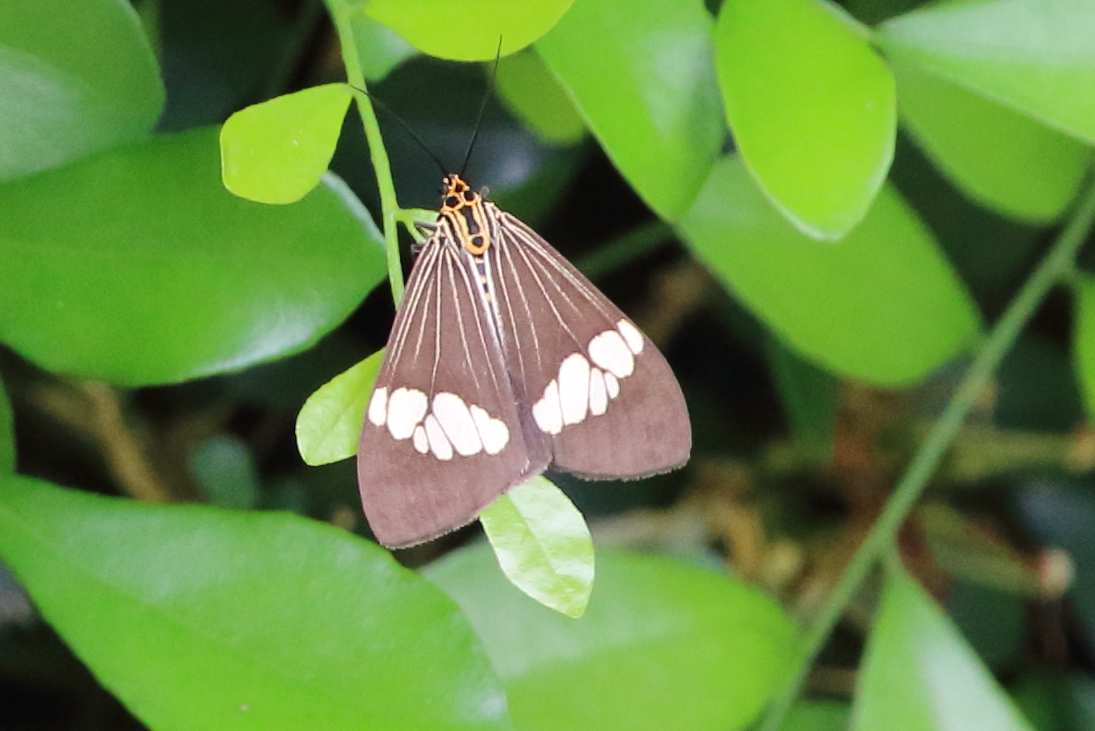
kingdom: Animalia
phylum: Arthropoda
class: Insecta
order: Lepidoptera
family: Erebidae
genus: Nyctemera
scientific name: Nyctemera baulus
